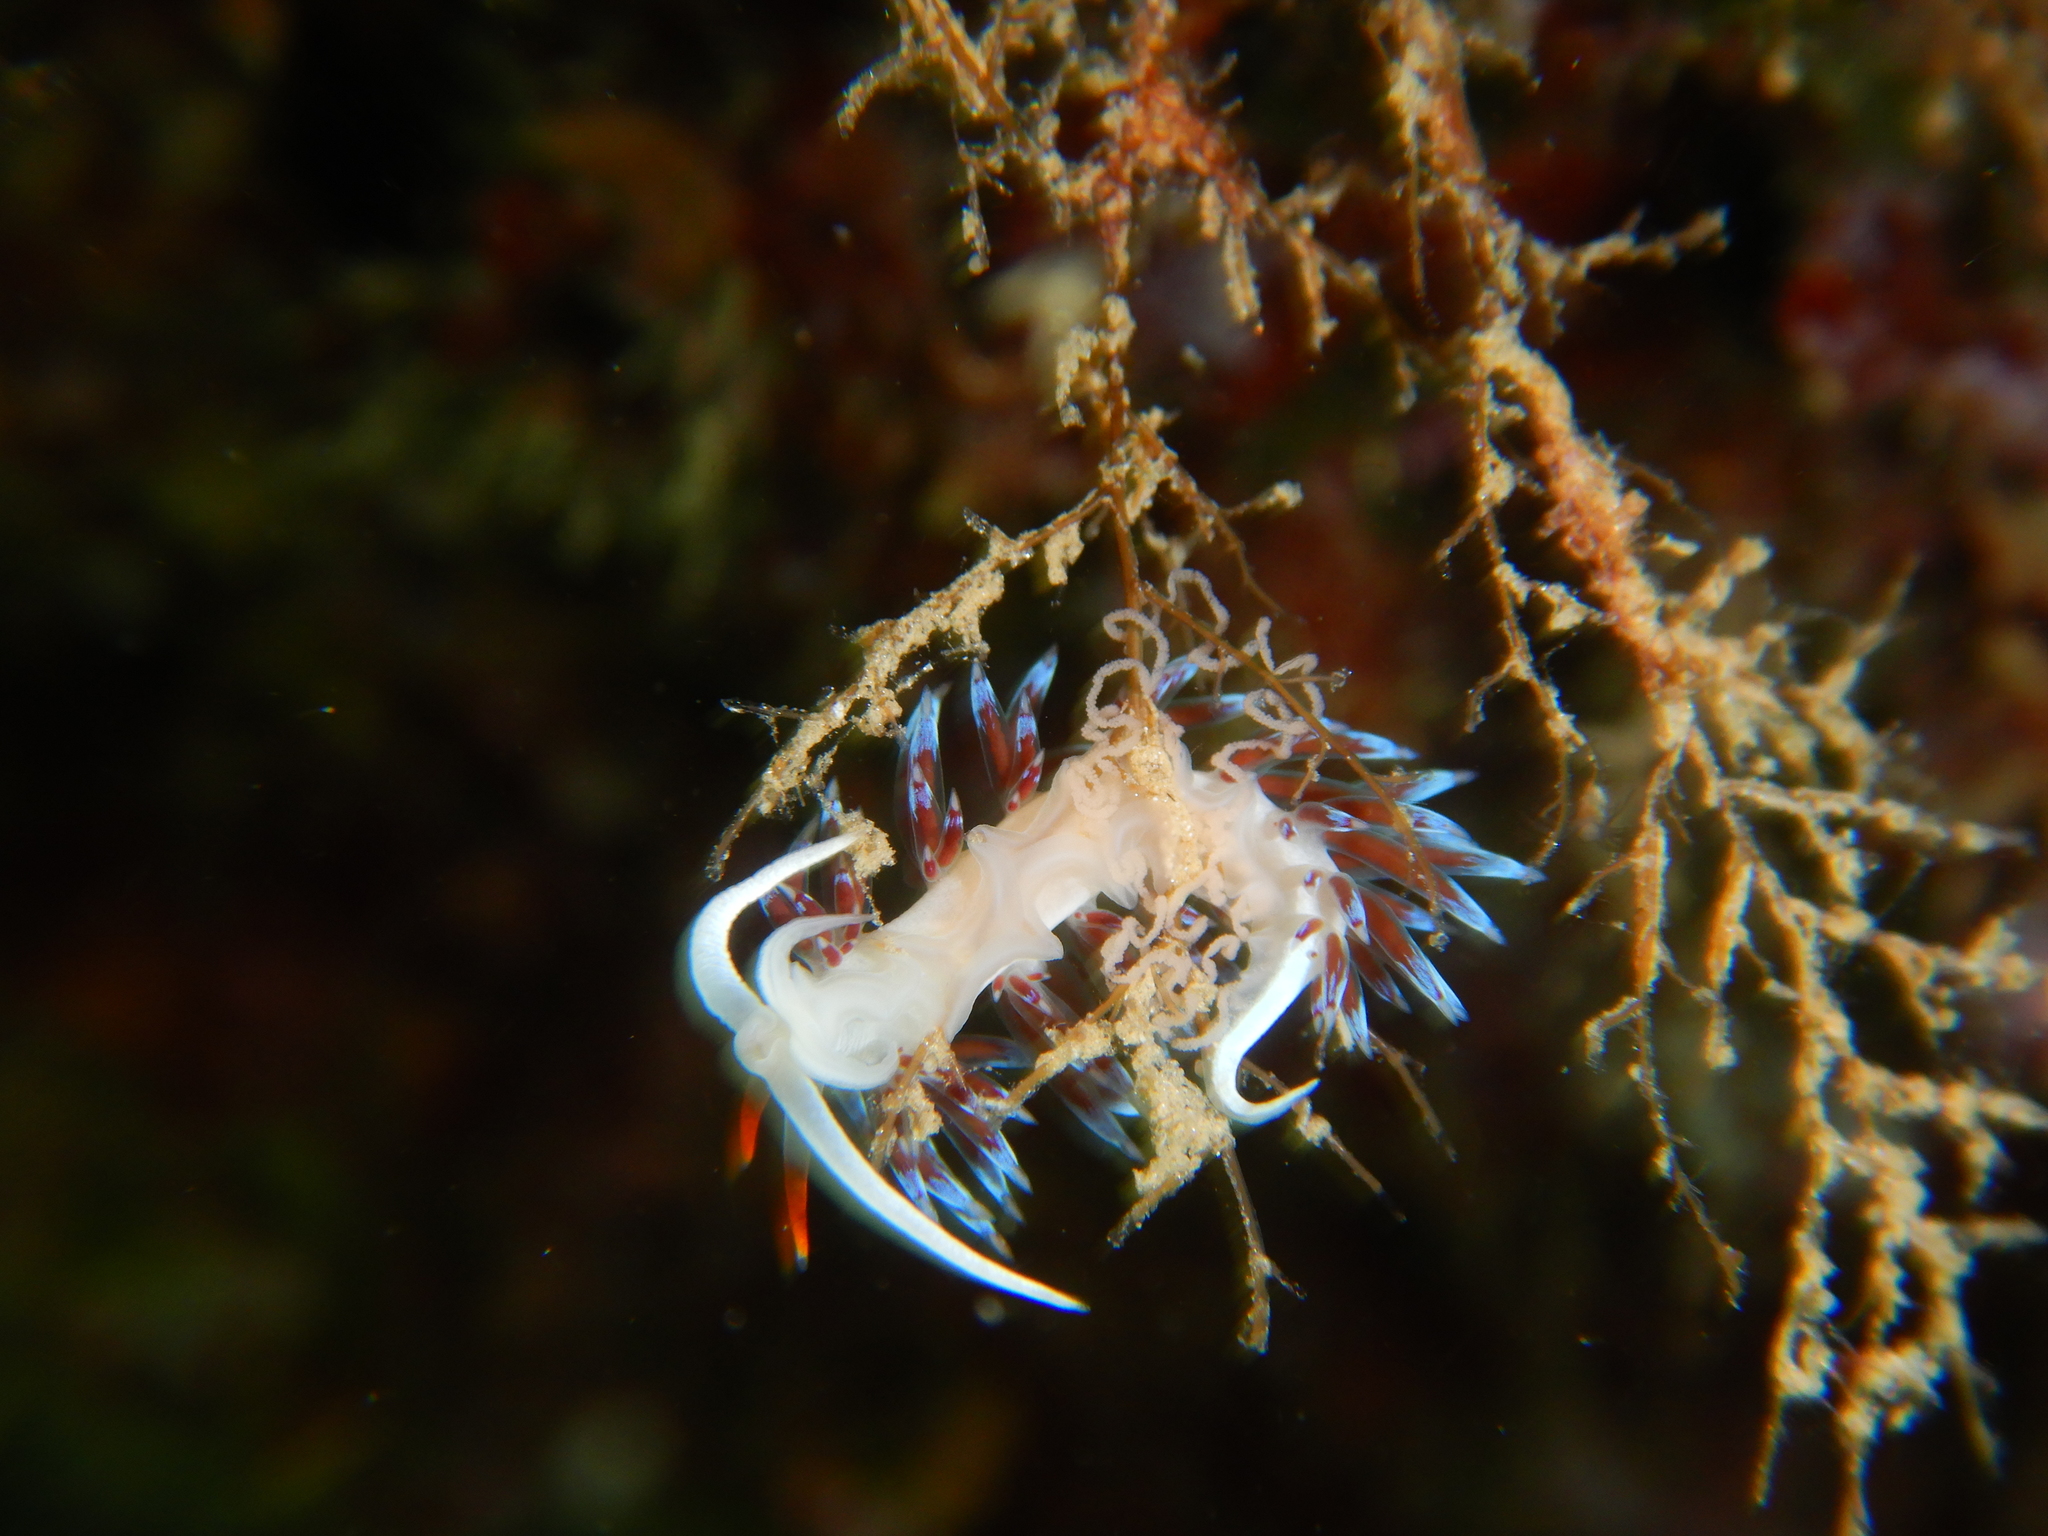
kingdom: Animalia
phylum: Mollusca
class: Gastropoda
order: Nudibranchia
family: Facelinidae
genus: Cratena
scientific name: Cratena peregrina
